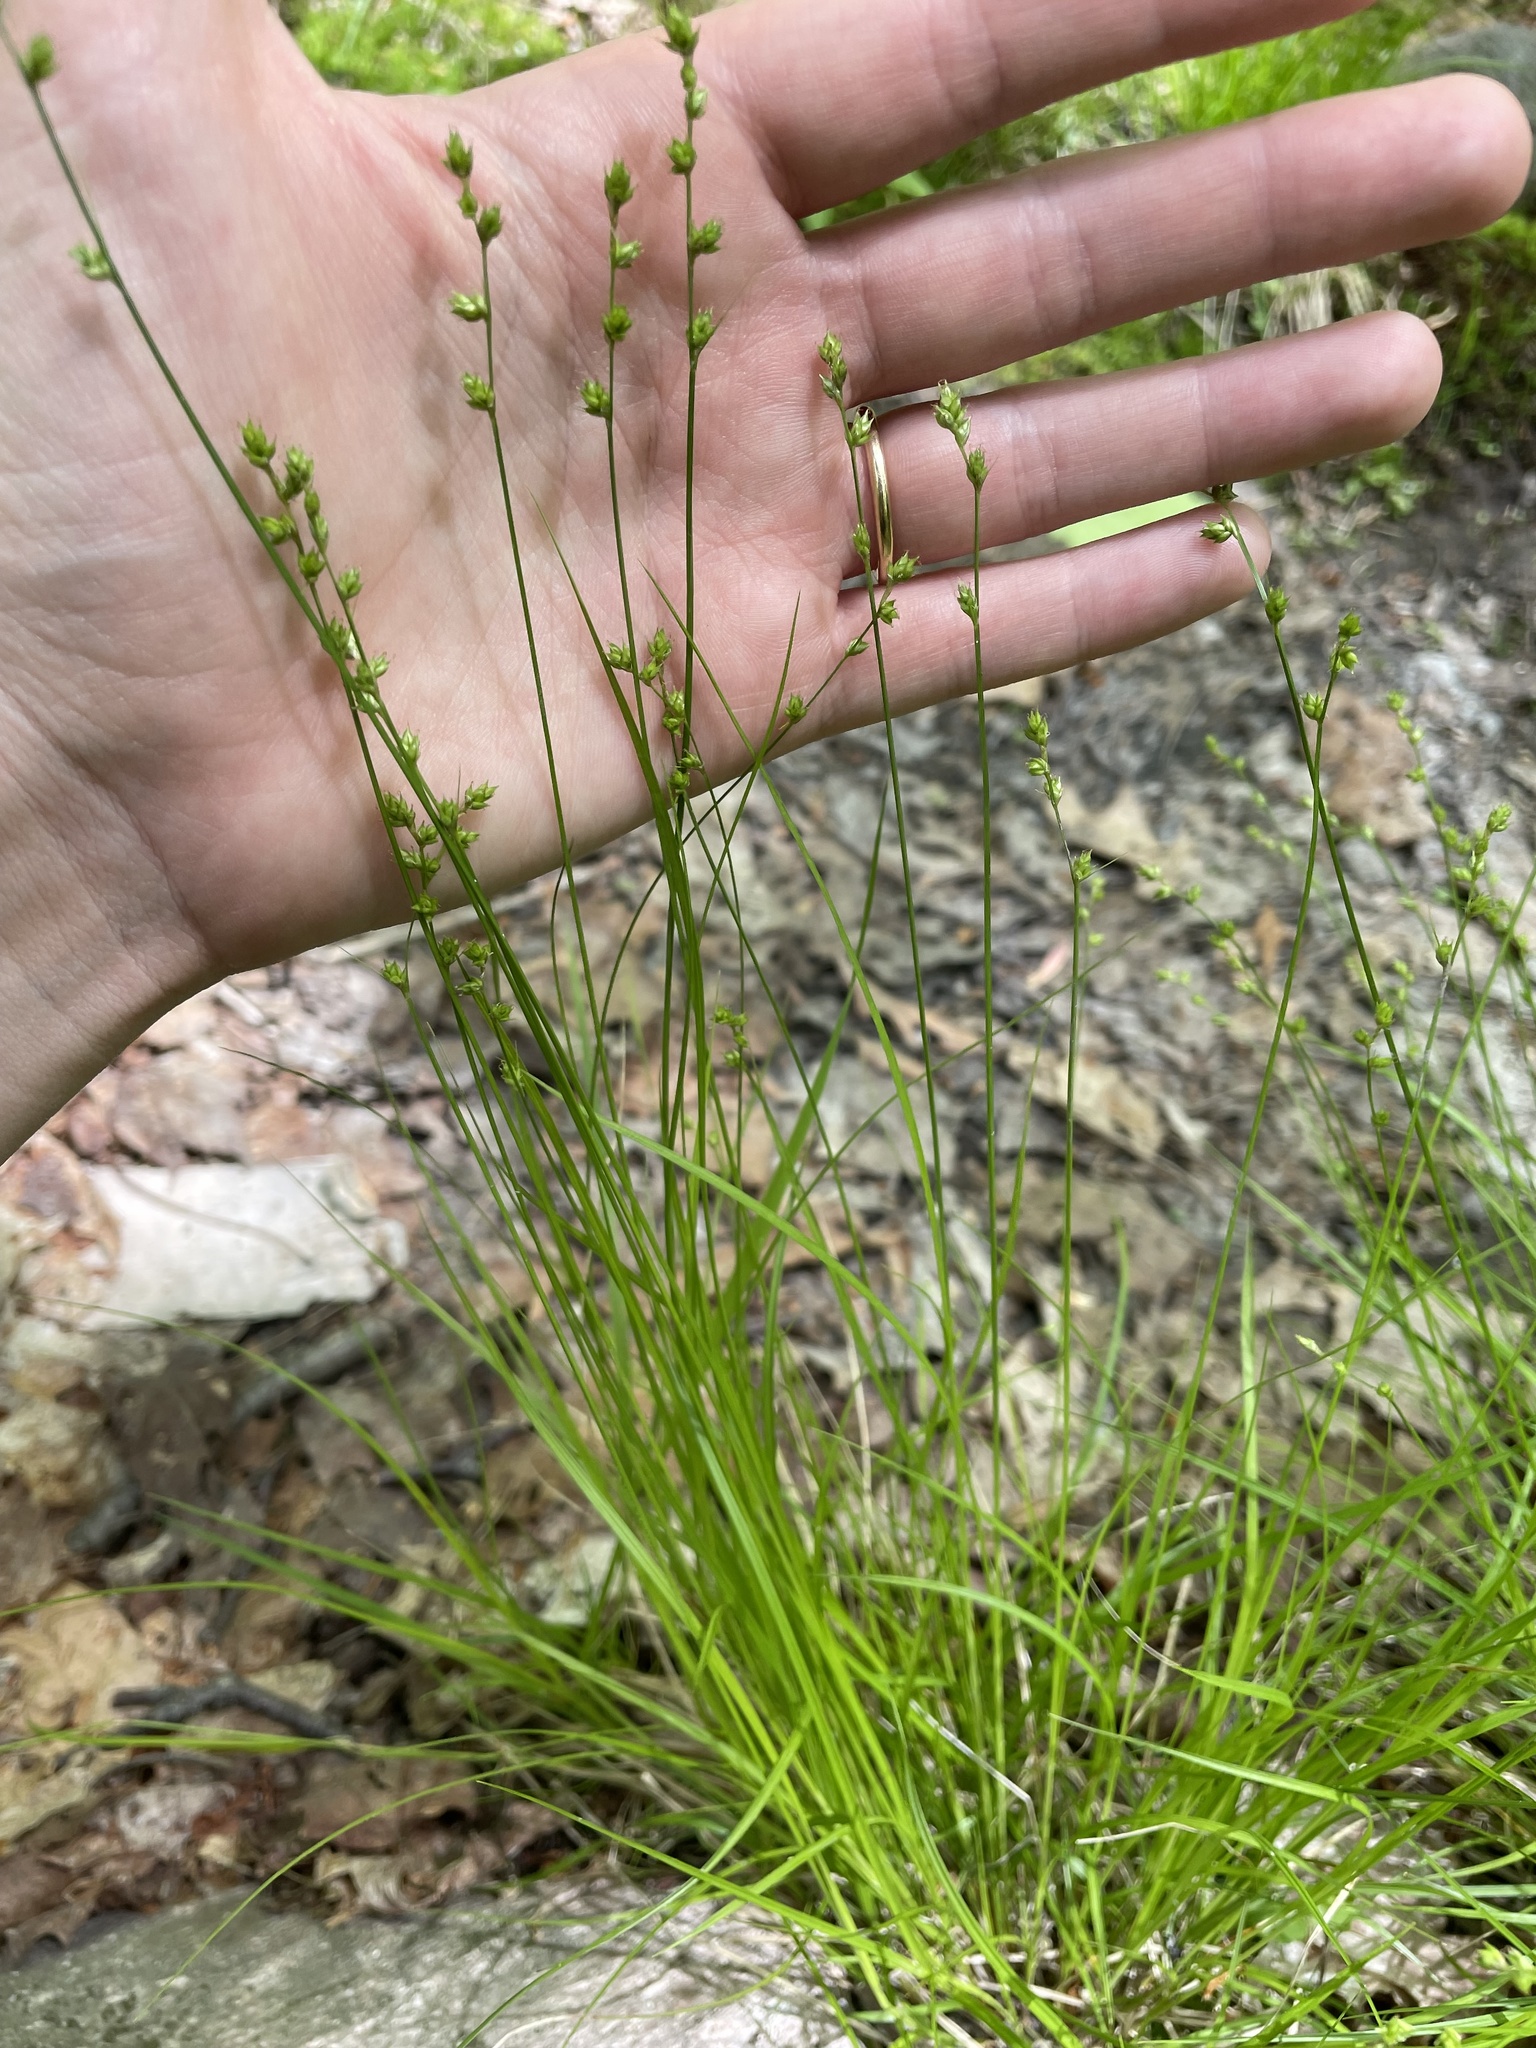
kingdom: Plantae
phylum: Tracheophyta
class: Liliopsida
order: Poales
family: Cyperaceae
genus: Carex
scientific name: Carex brunnescens
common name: Brown sedge
